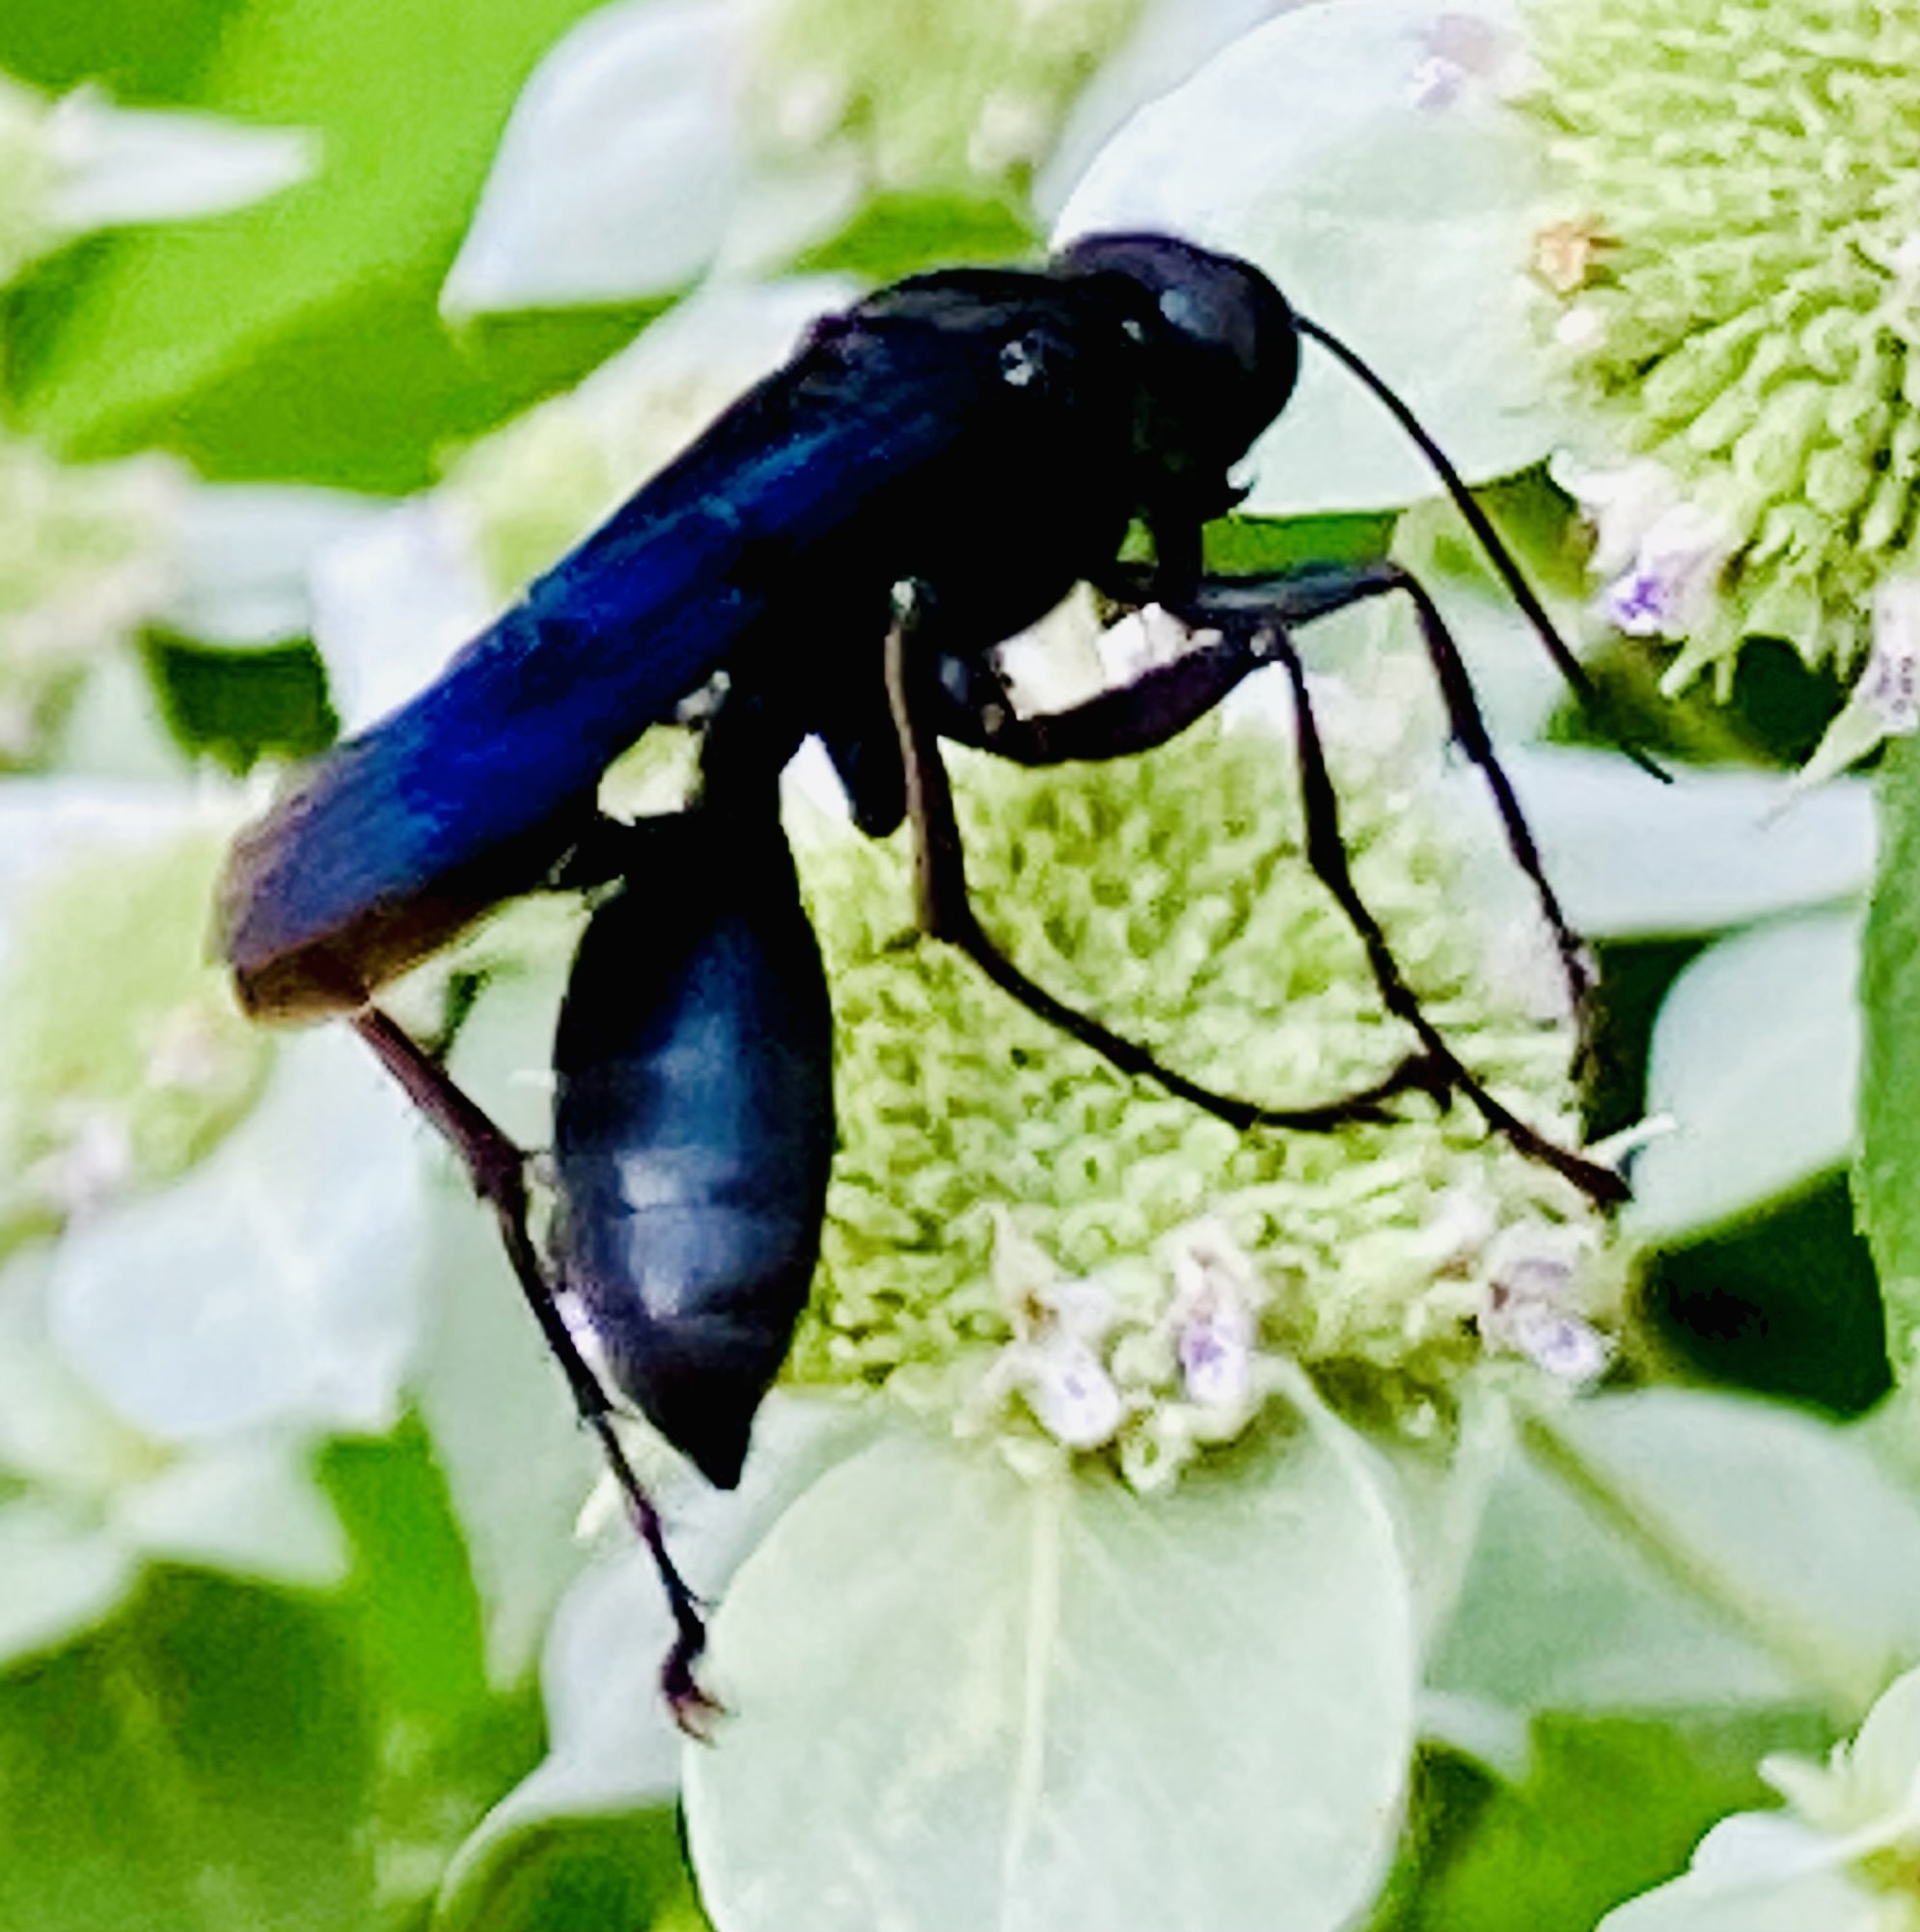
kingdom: Animalia
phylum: Arthropoda
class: Insecta
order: Hymenoptera
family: Sphecidae
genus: Sphex
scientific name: Sphex pensylvanicus
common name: Great black digger wasp
